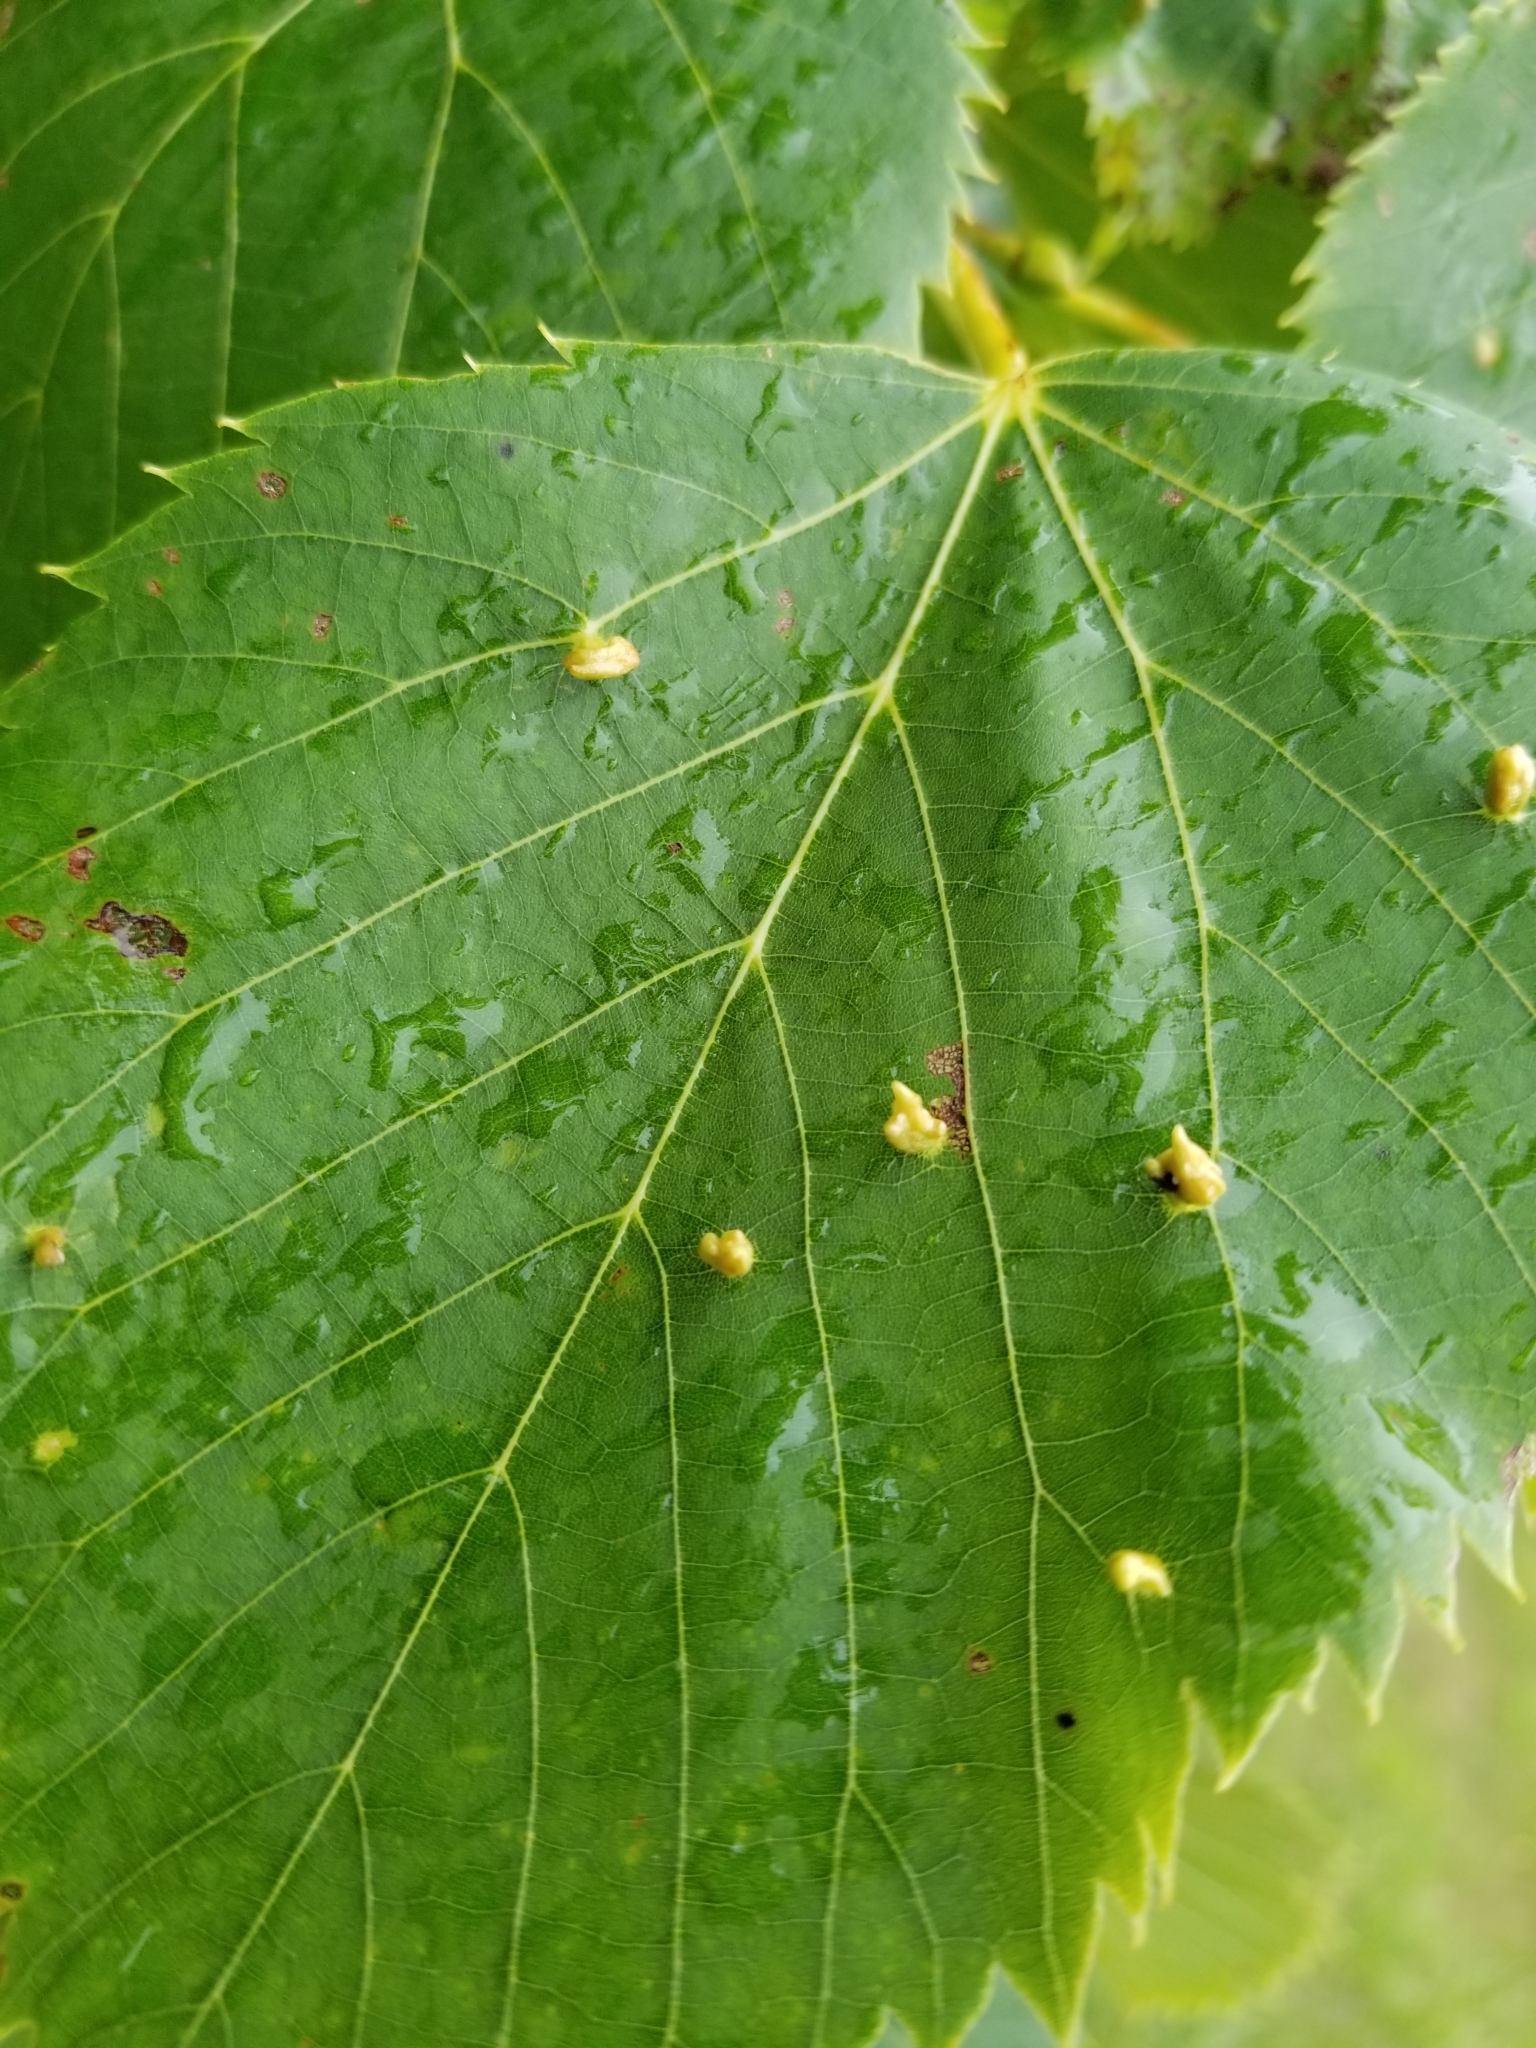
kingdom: Animalia
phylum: Arthropoda
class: Arachnida
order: Trombidiformes
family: Eriophyidae
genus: Eriophyes
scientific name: Eriophyes tiliae
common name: Red nail gall mite
